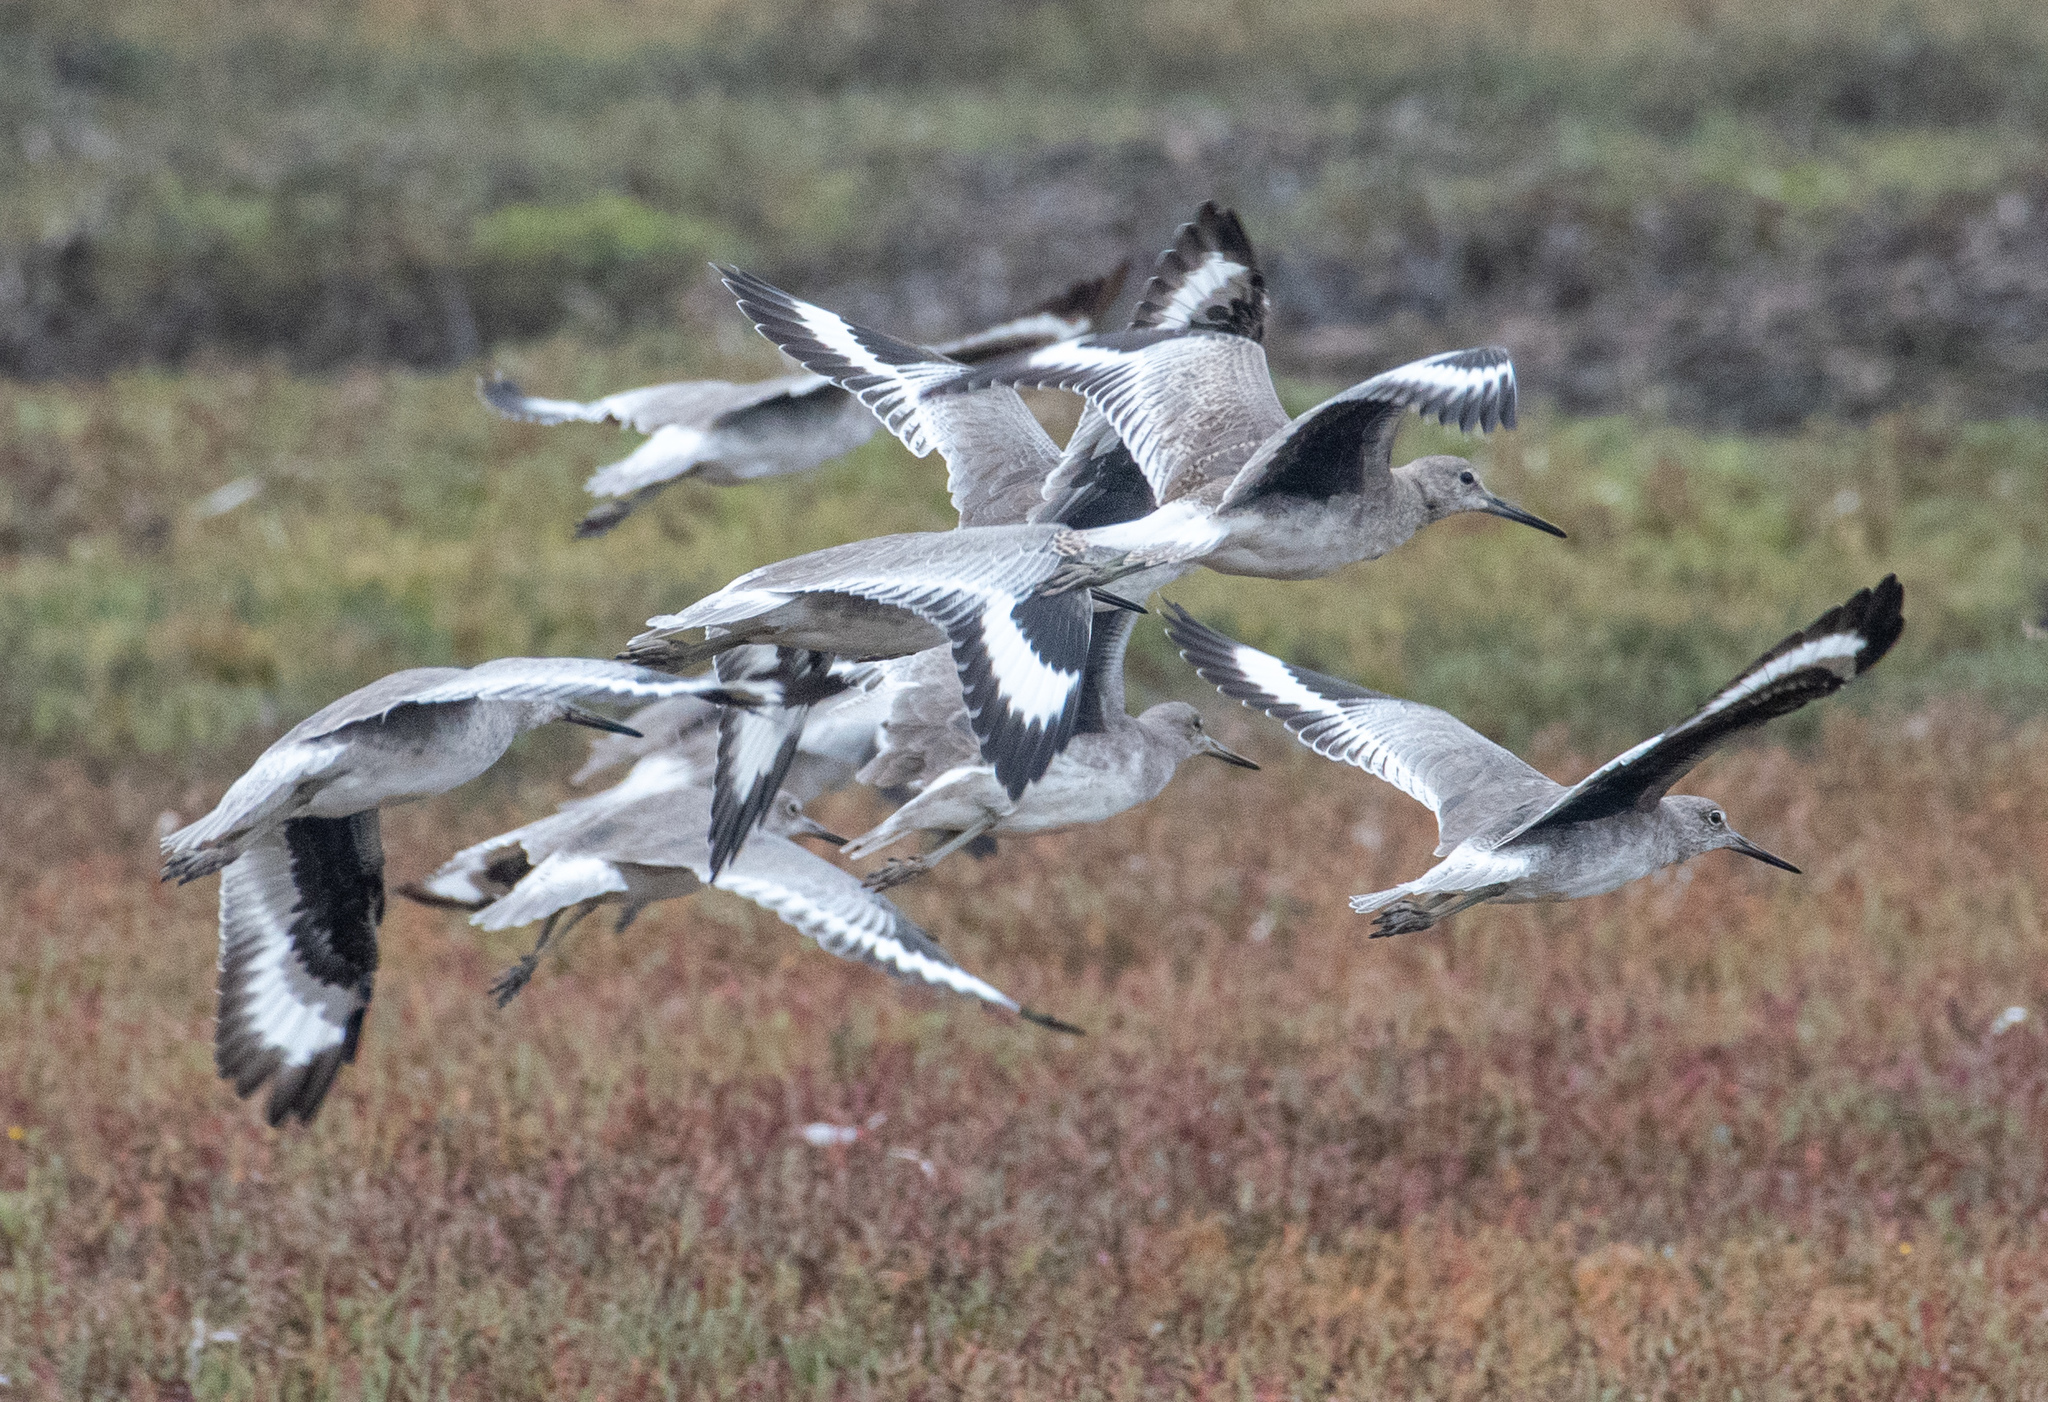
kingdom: Animalia
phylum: Chordata
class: Aves
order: Charadriiformes
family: Scolopacidae
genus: Tringa
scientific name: Tringa semipalmata
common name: Willet
